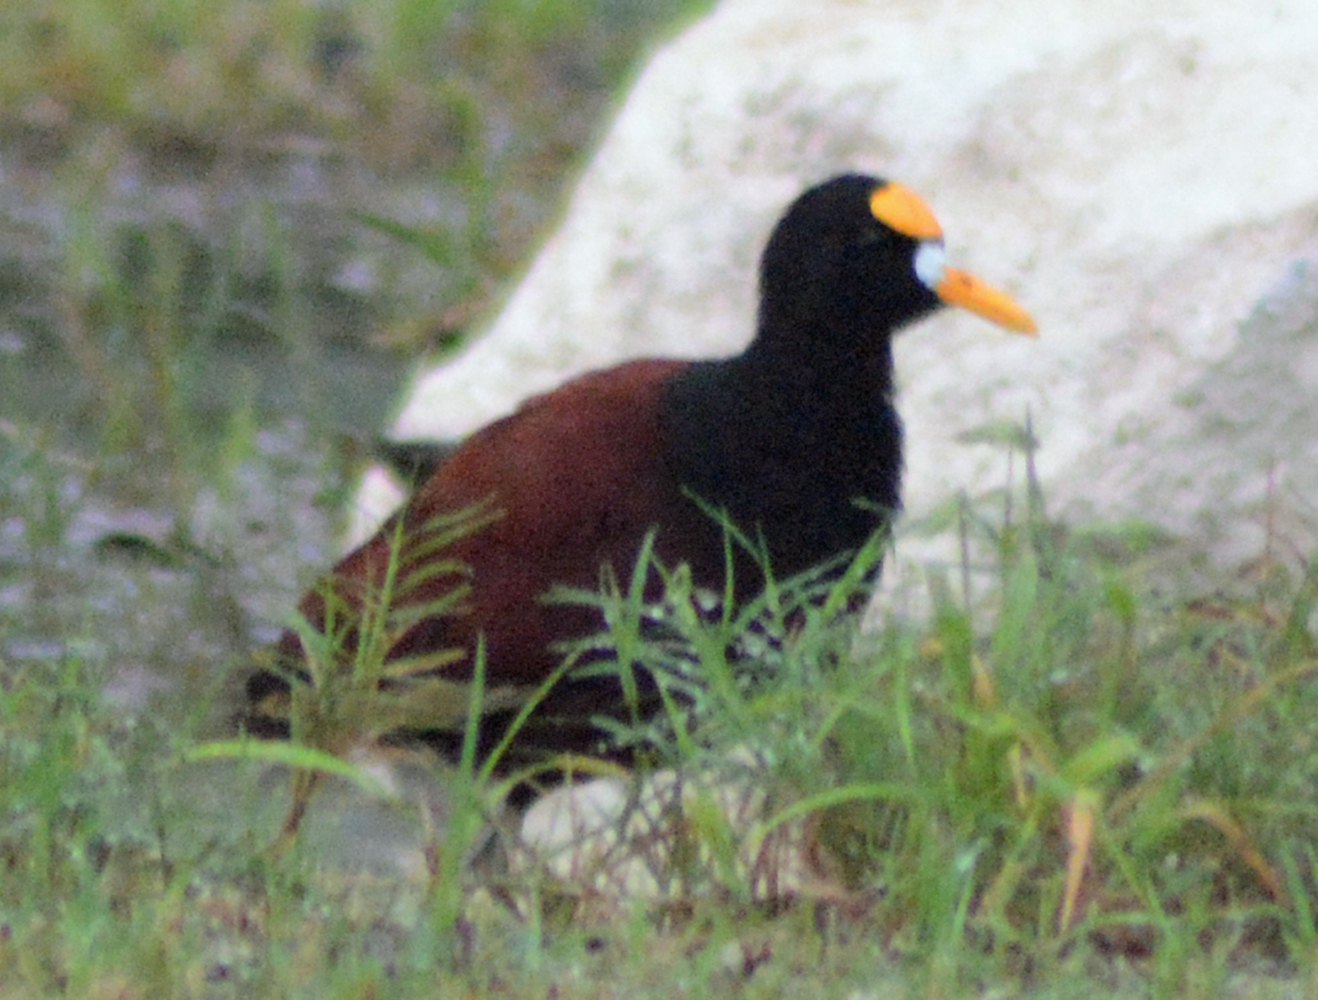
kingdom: Animalia
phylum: Chordata
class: Aves
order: Charadriiformes
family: Jacanidae
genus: Jacana
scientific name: Jacana spinosa
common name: Northern jacana
